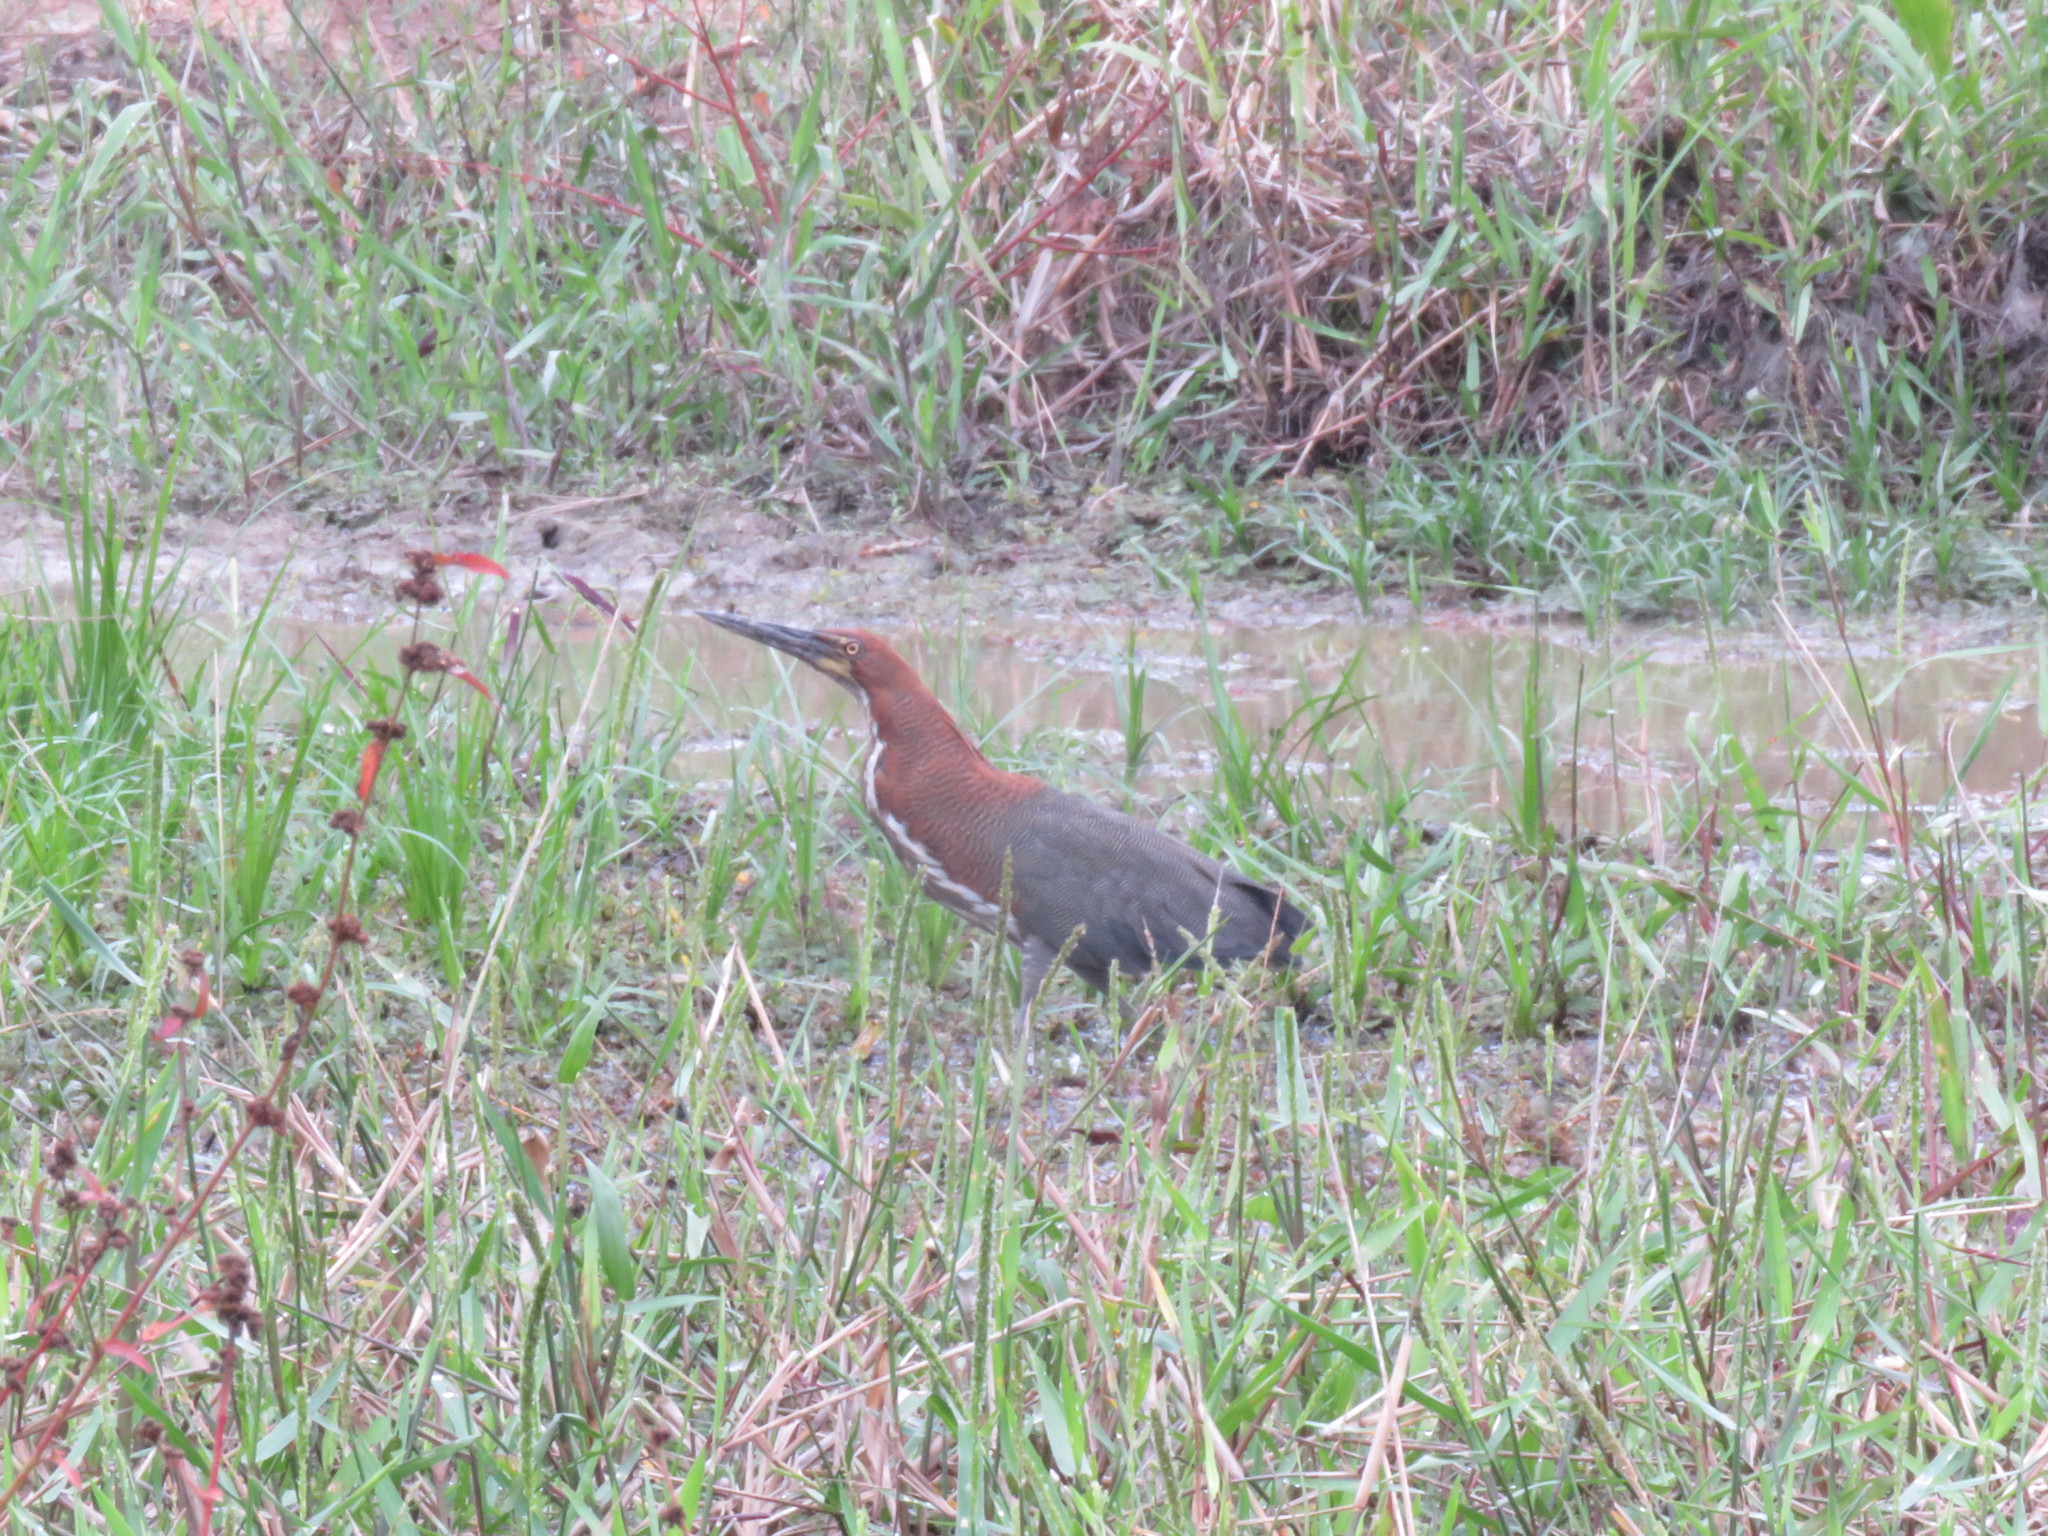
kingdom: Animalia
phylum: Chordata
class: Aves
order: Pelecaniformes
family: Ardeidae
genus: Tigrisoma
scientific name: Tigrisoma lineatum
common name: Rufescent tiger-heron
